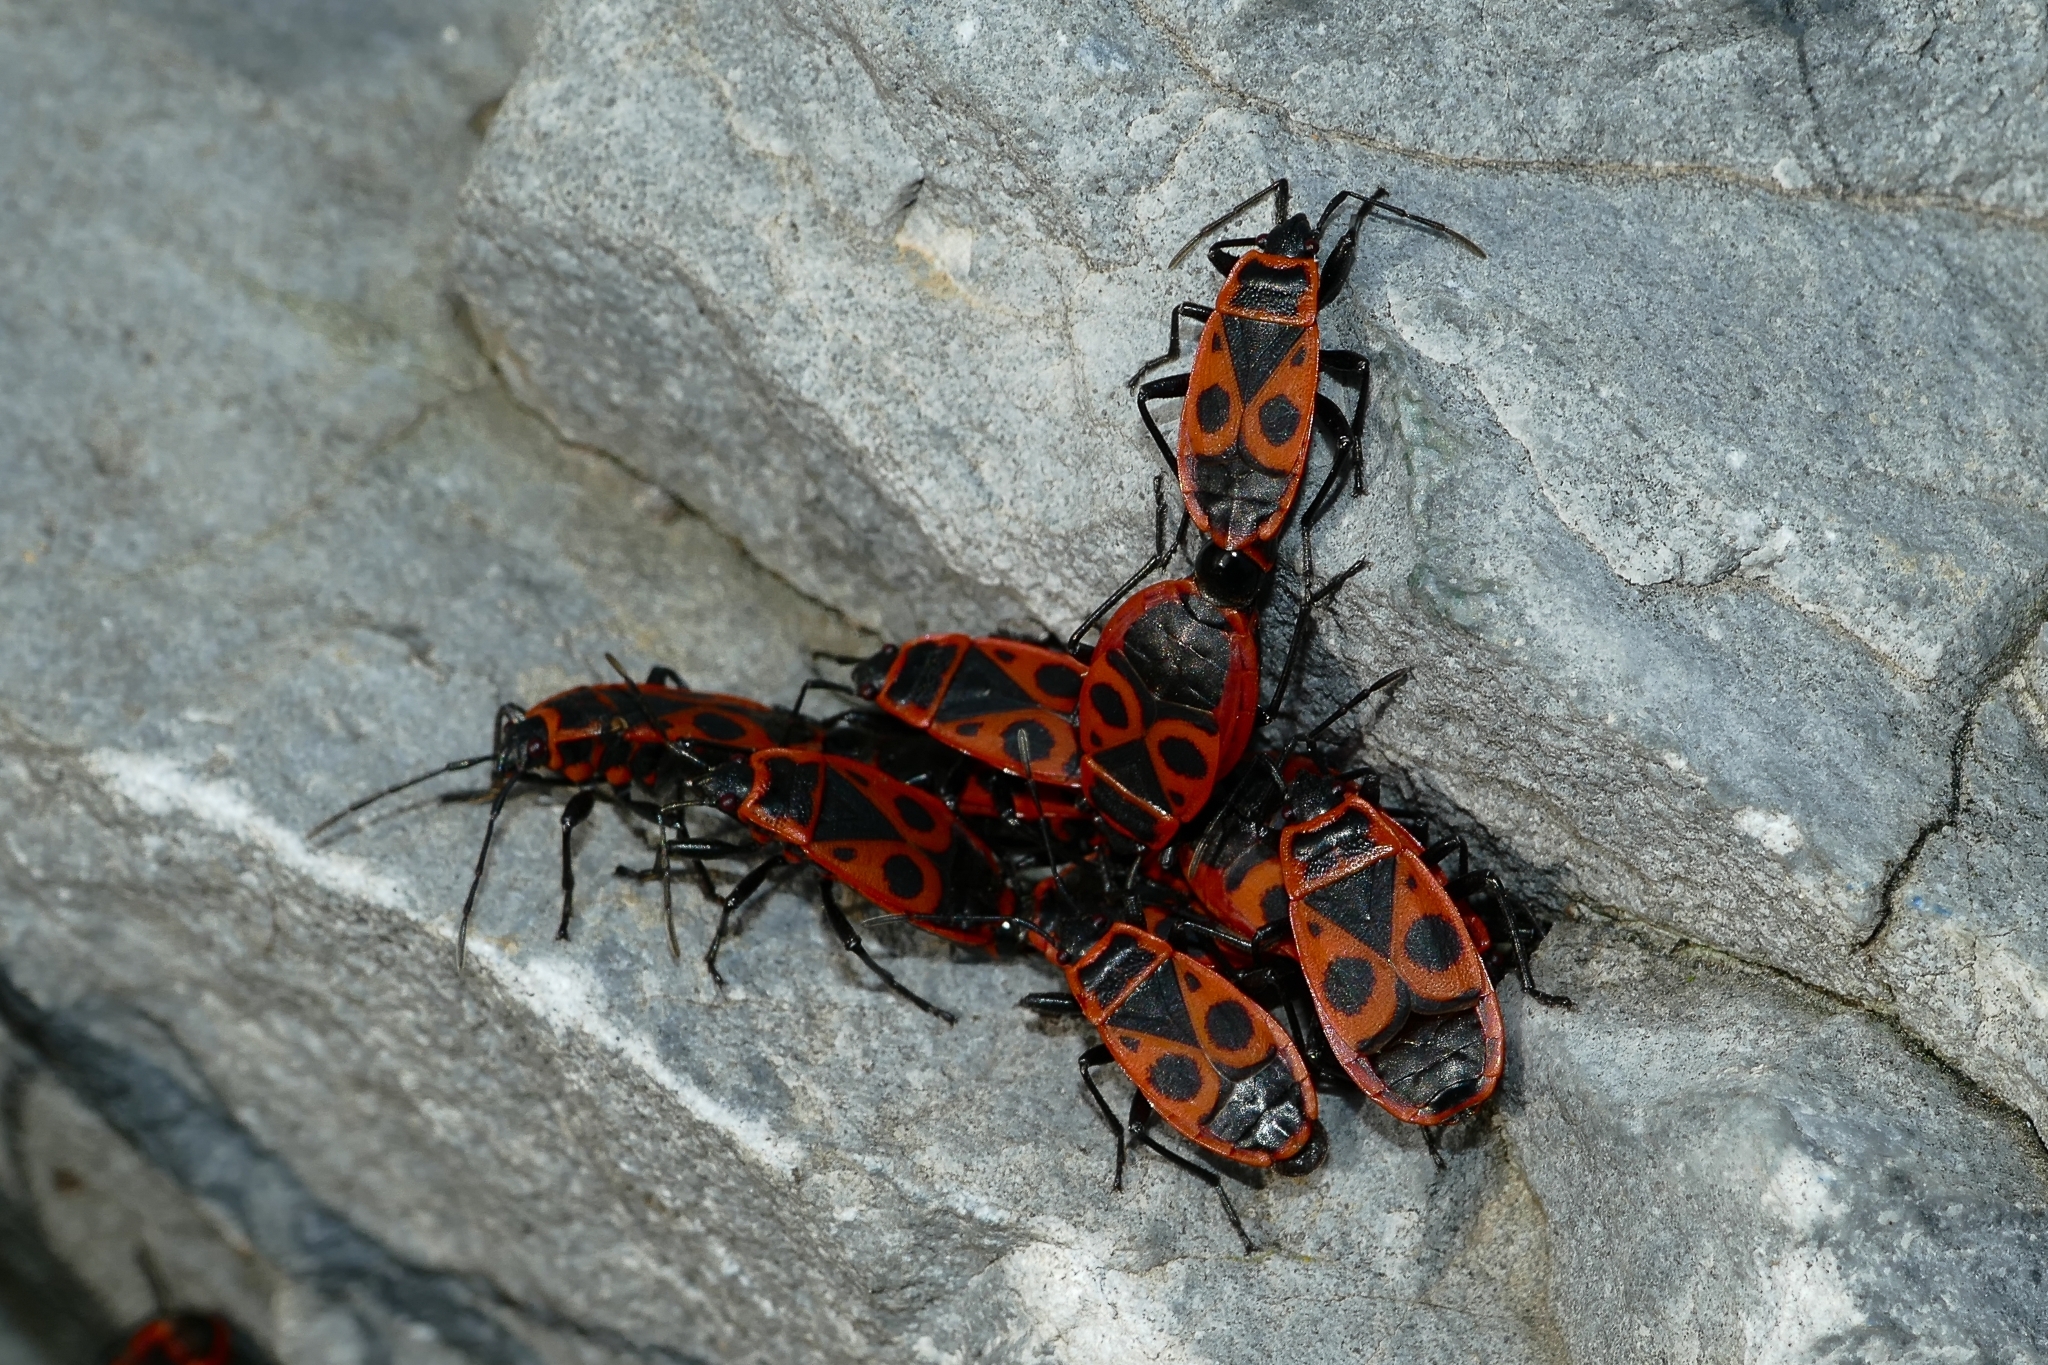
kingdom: Animalia
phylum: Arthropoda
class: Insecta
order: Hemiptera
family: Pyrrhocoridae
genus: Pyrrhocoris
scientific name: Pyrrhocoris apterus
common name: Firebug
